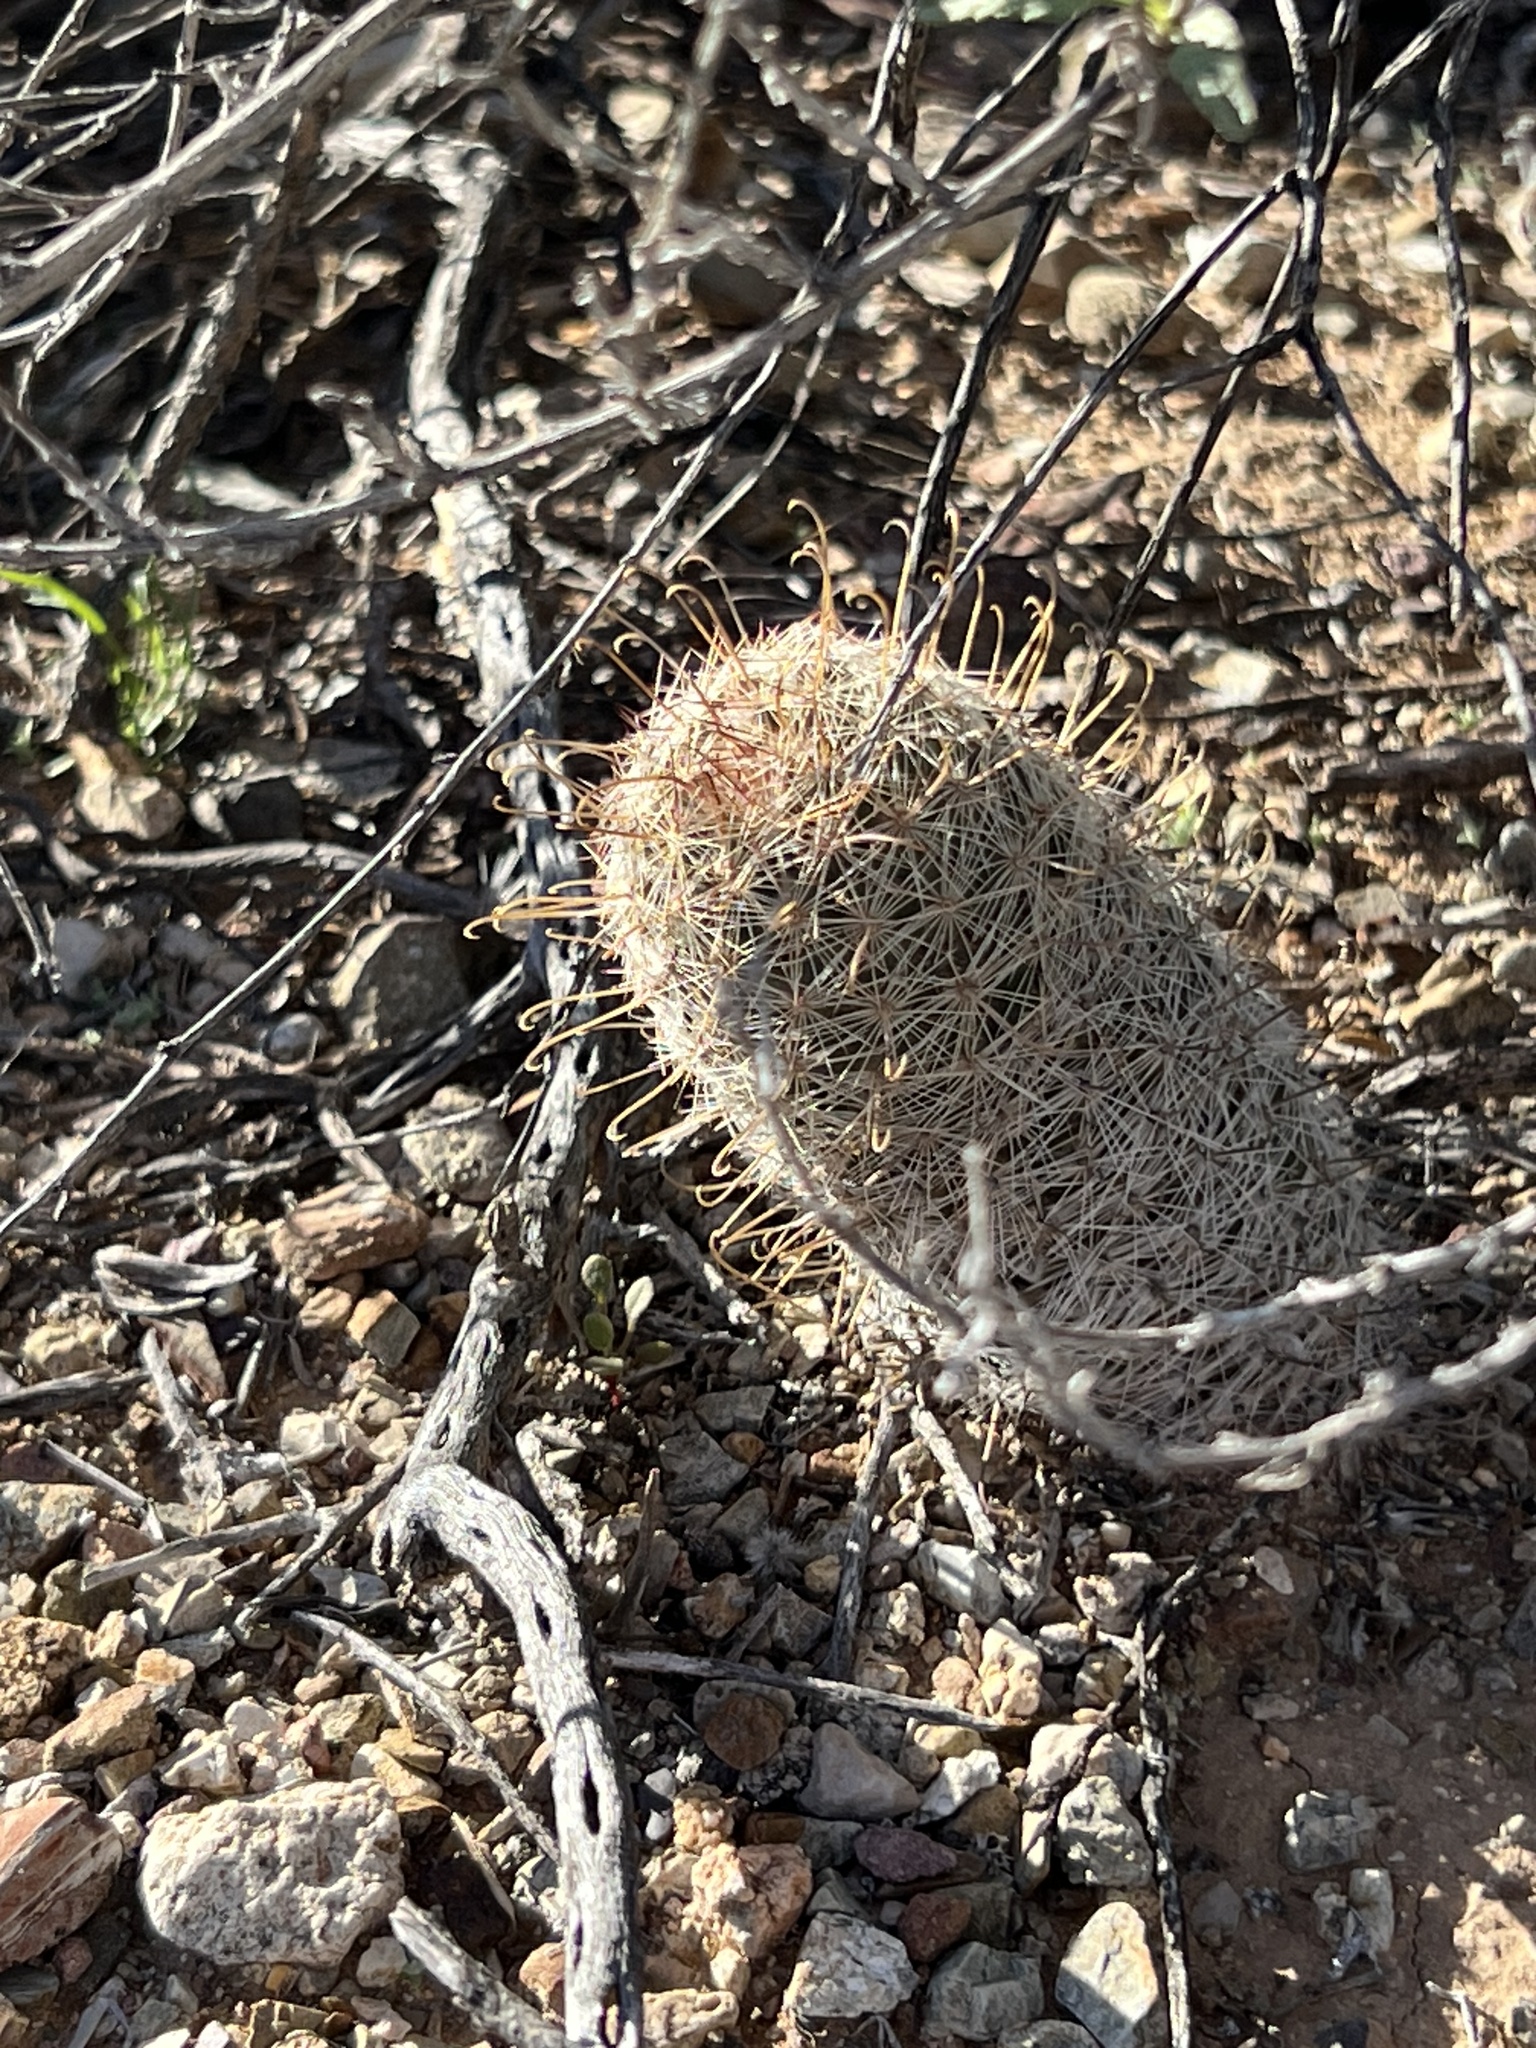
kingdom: Plantae
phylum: Tracheophyta
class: Magnoliopsida
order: Caryophyllales
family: Cactaceae
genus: Cochemiea
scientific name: Cochemiea grahamii
